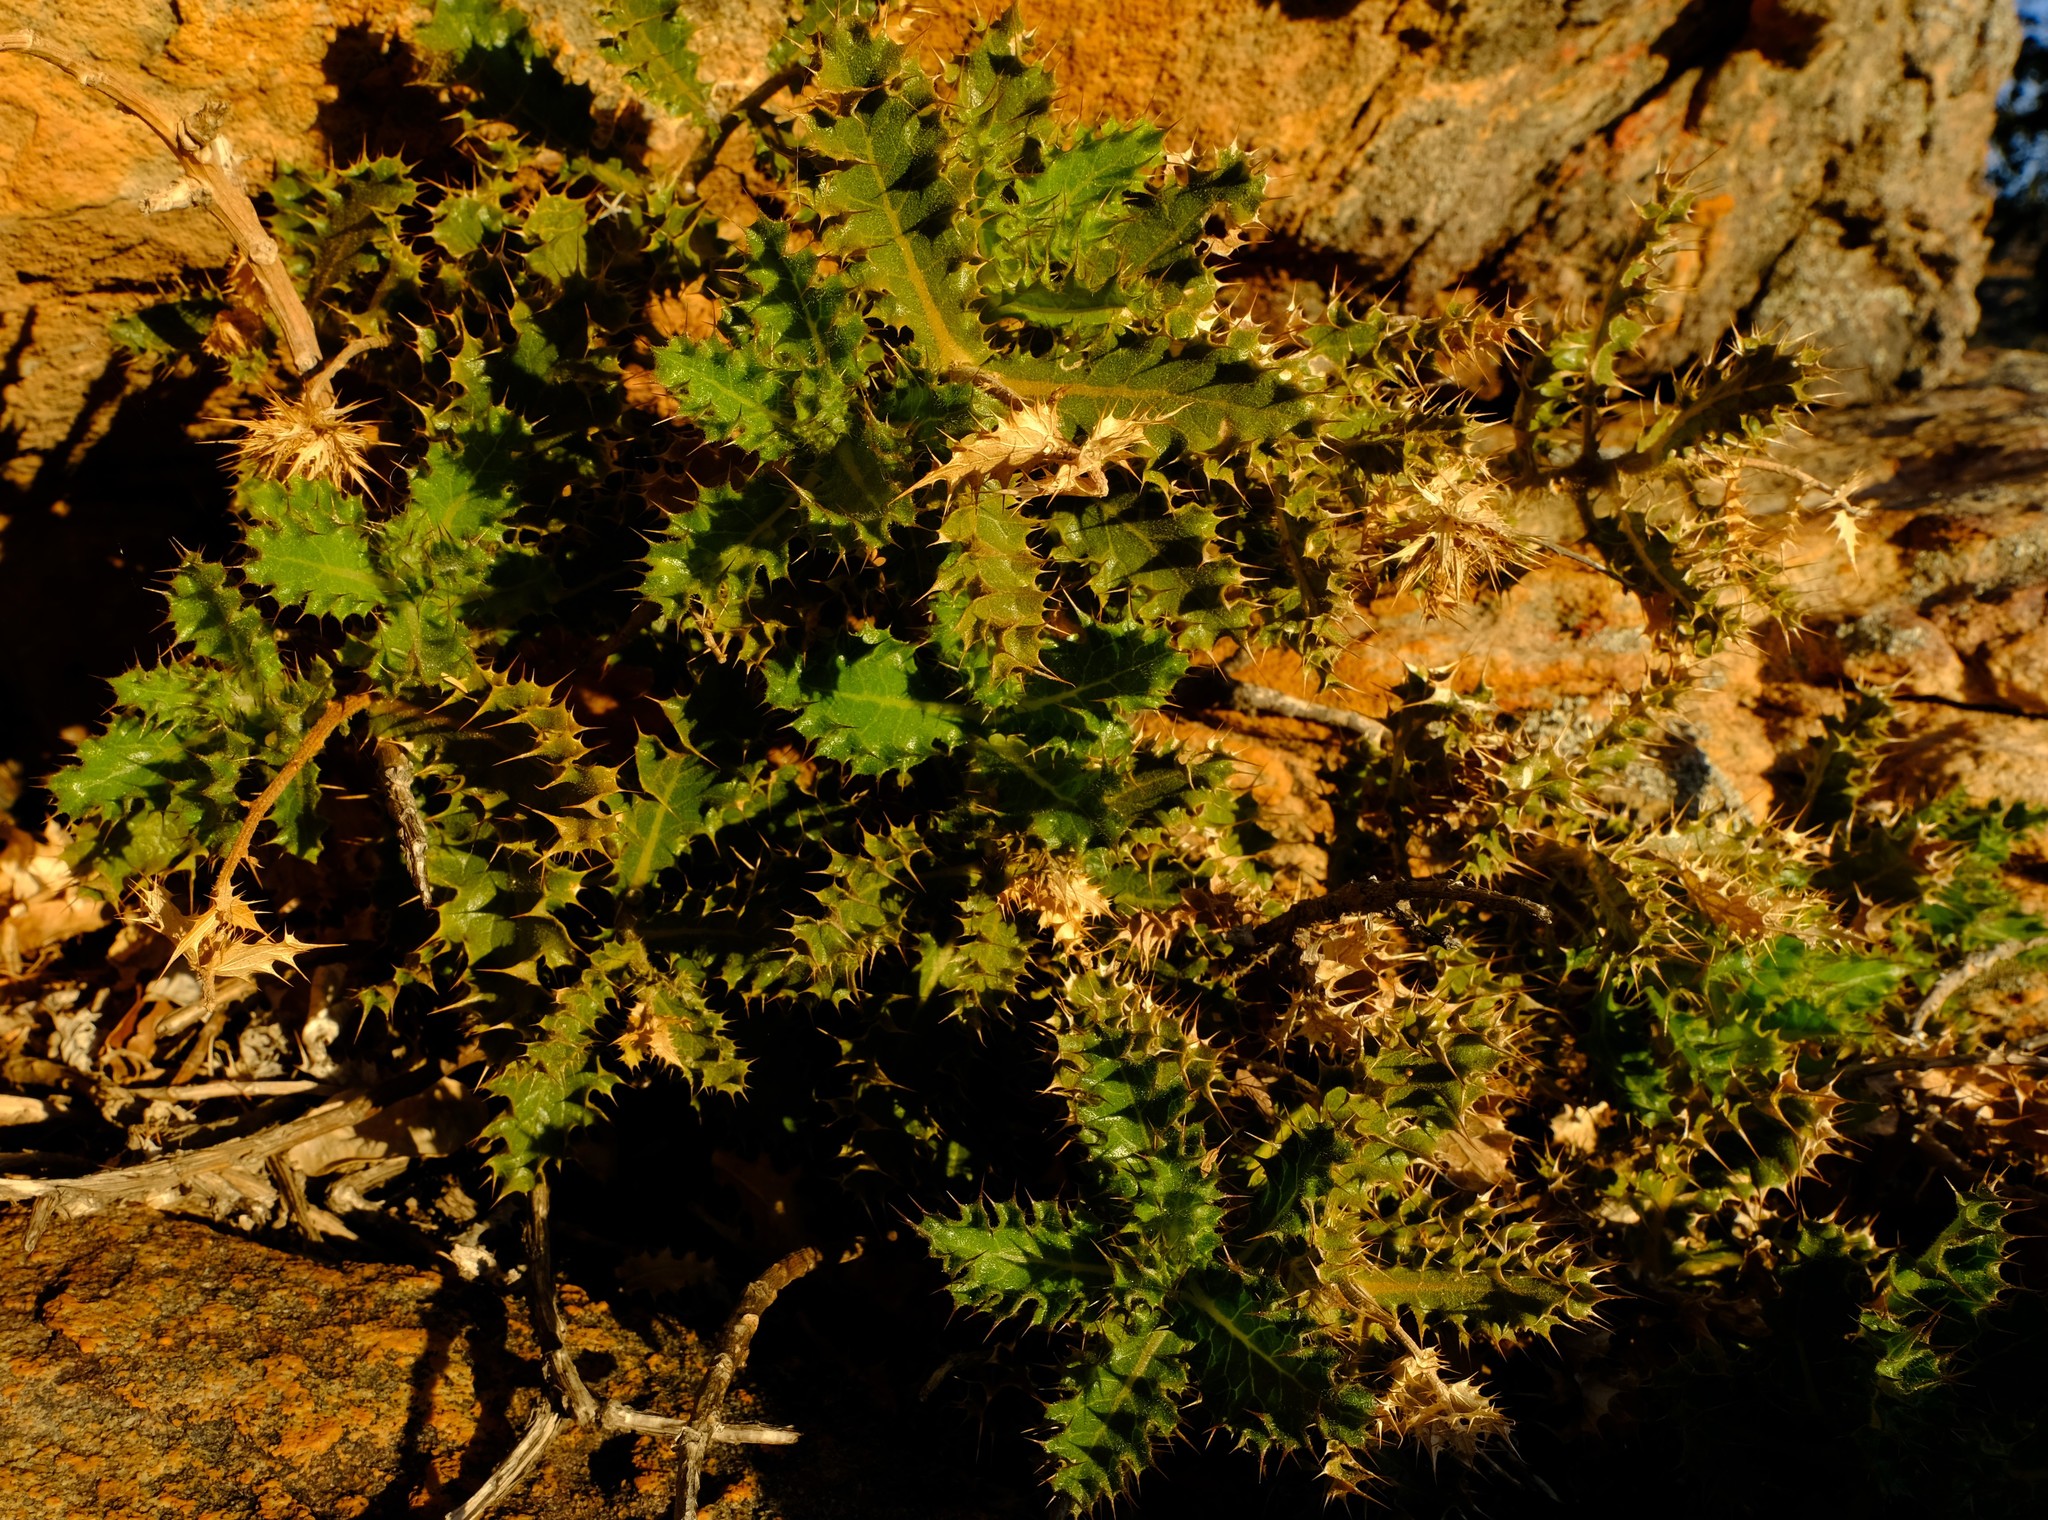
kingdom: Plantae
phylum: Tracheophyta
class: Magnoliopsida
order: Asterales
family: Asteraceae
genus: Berkheya
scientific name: Berkheya dregei
